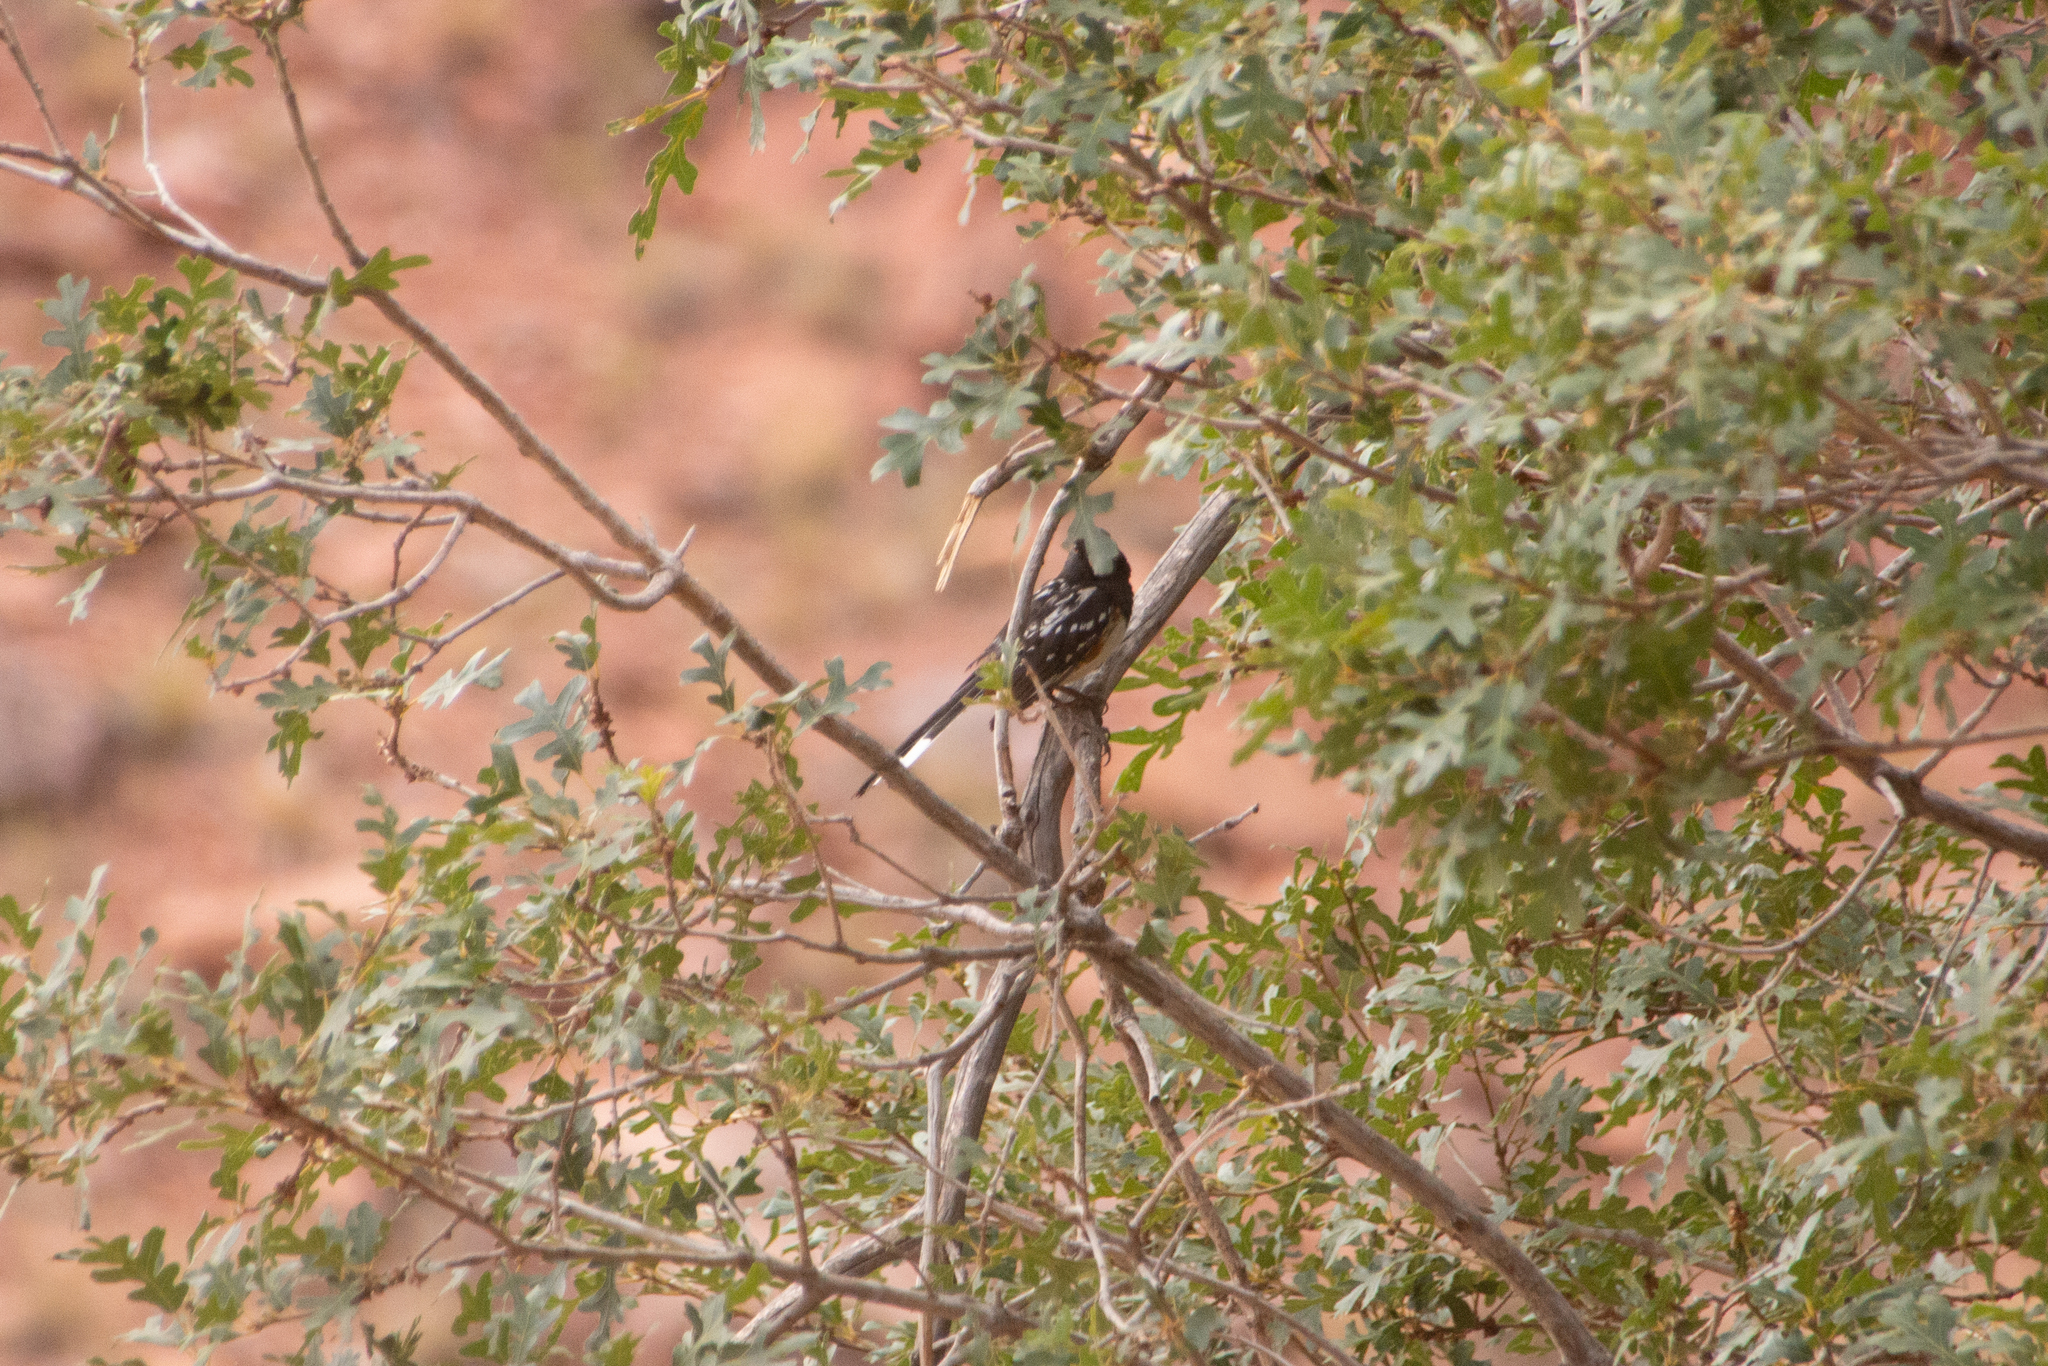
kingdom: Animalia
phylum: Chordata
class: Aves
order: Passeriformes
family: Passerellidae
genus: Pipilo
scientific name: Pipilo maculatus
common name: Spotted towhee
